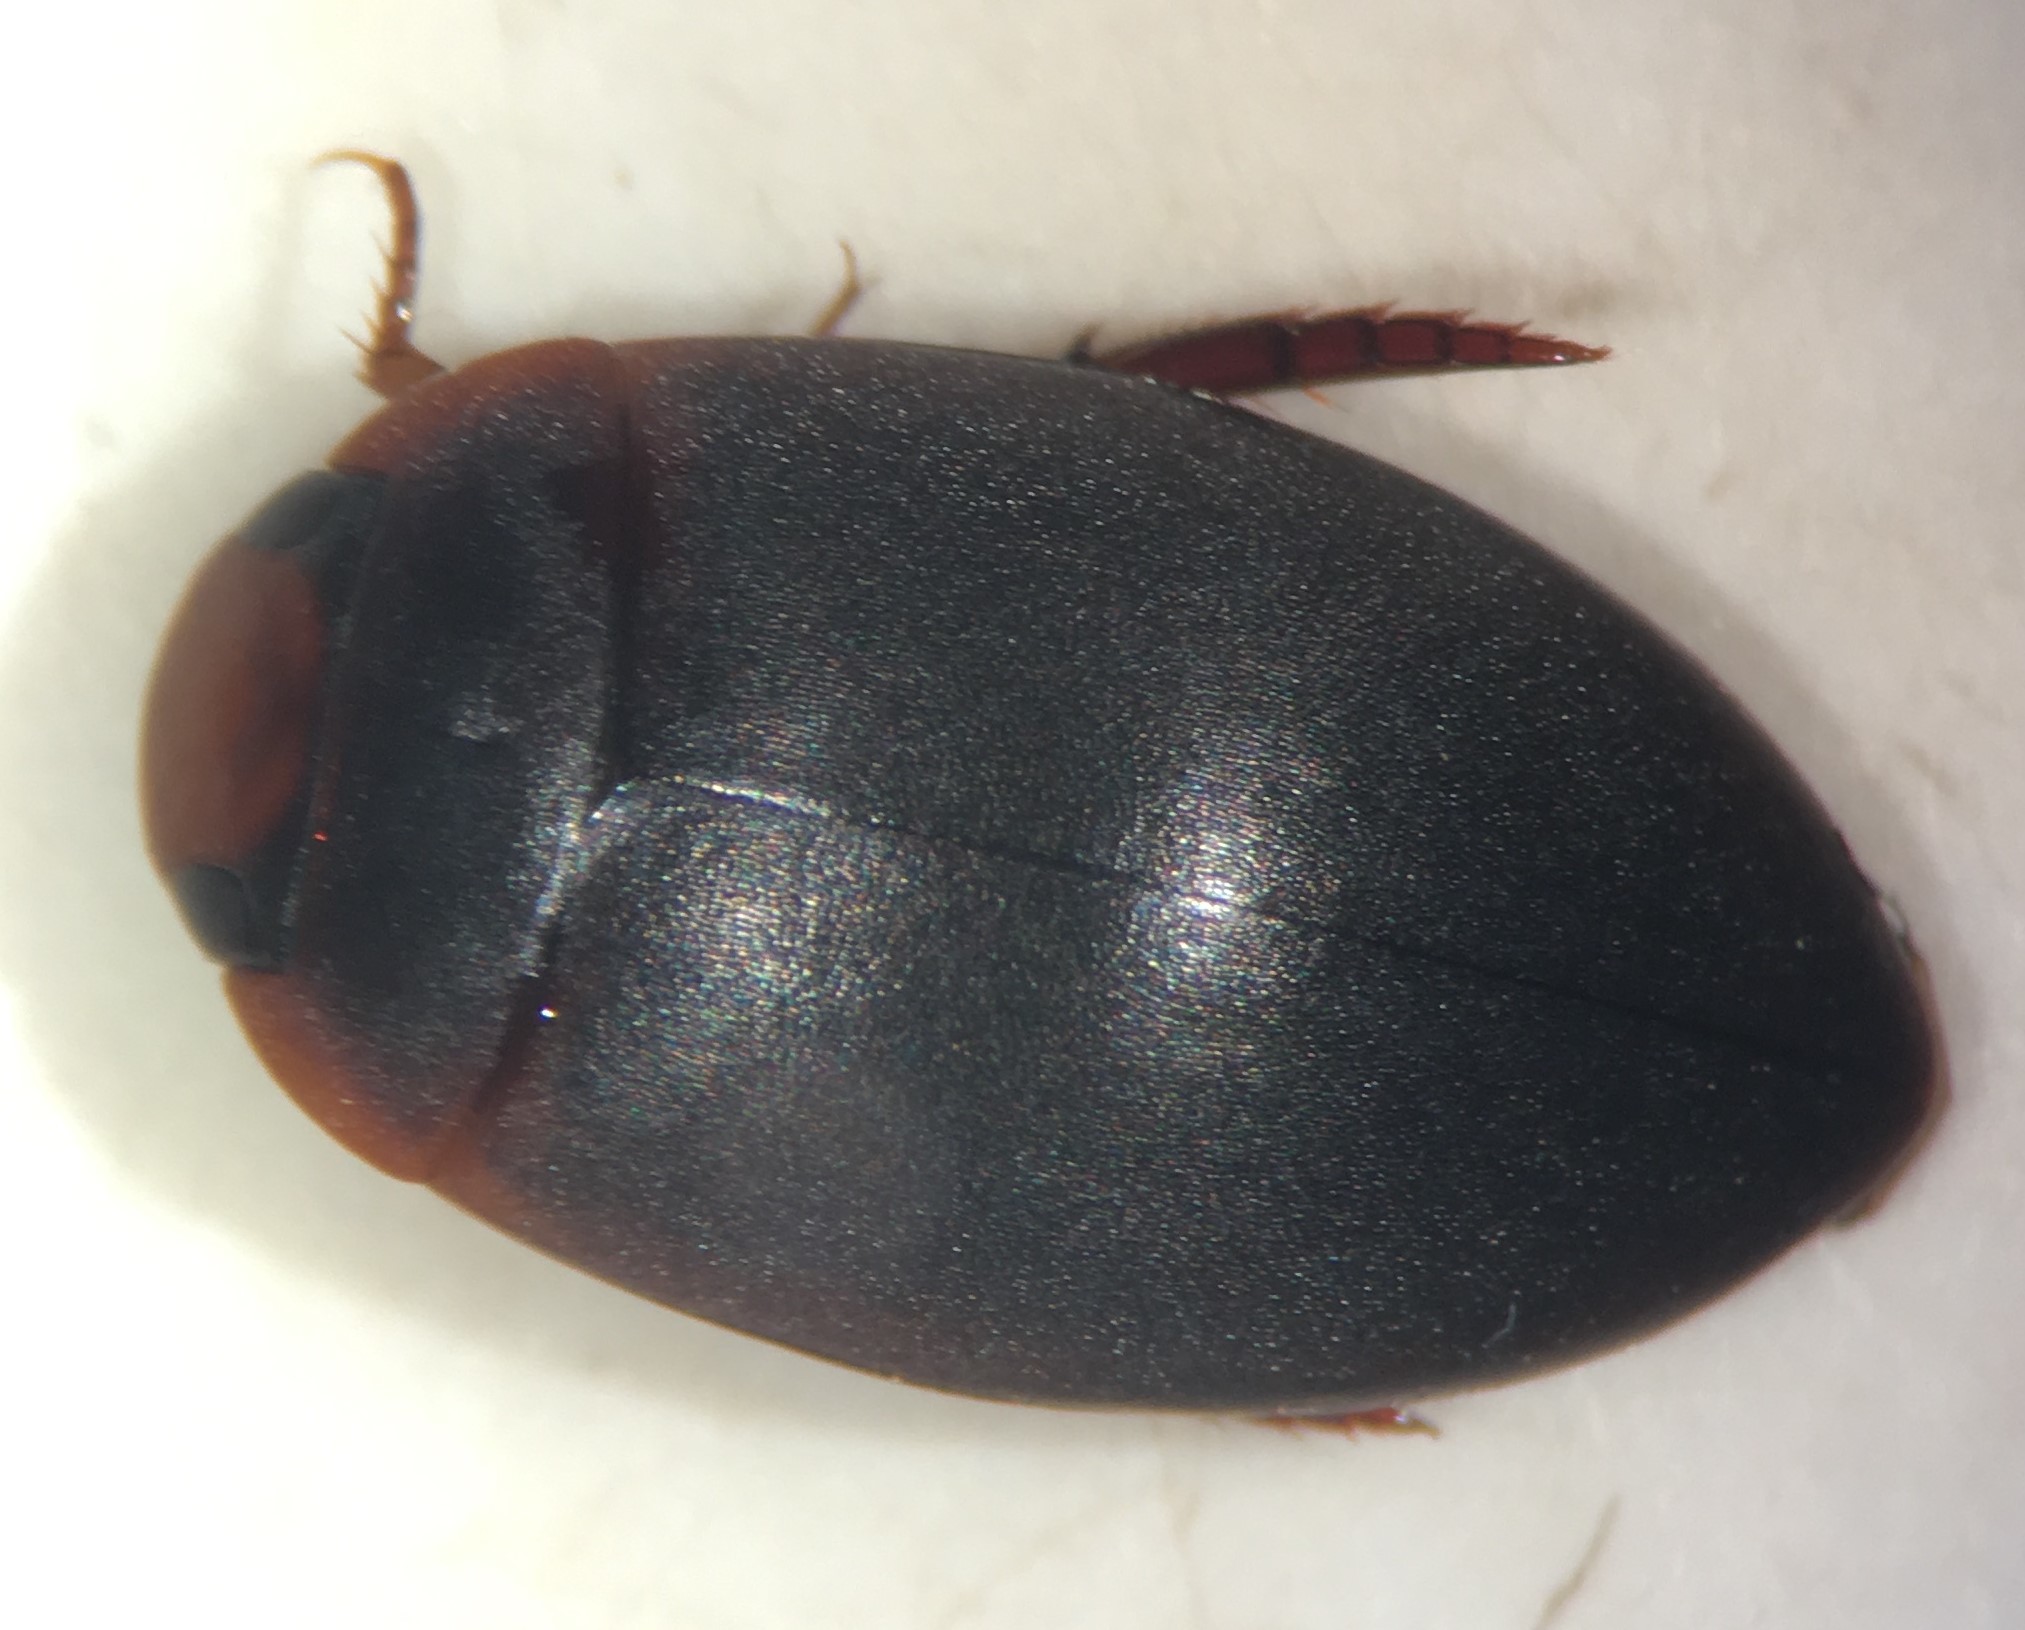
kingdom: Animalia
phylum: Arthropoda
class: Insecta
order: Coleoptera
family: Dytiscidae
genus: Agabetes
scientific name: Agabetes acuductus
